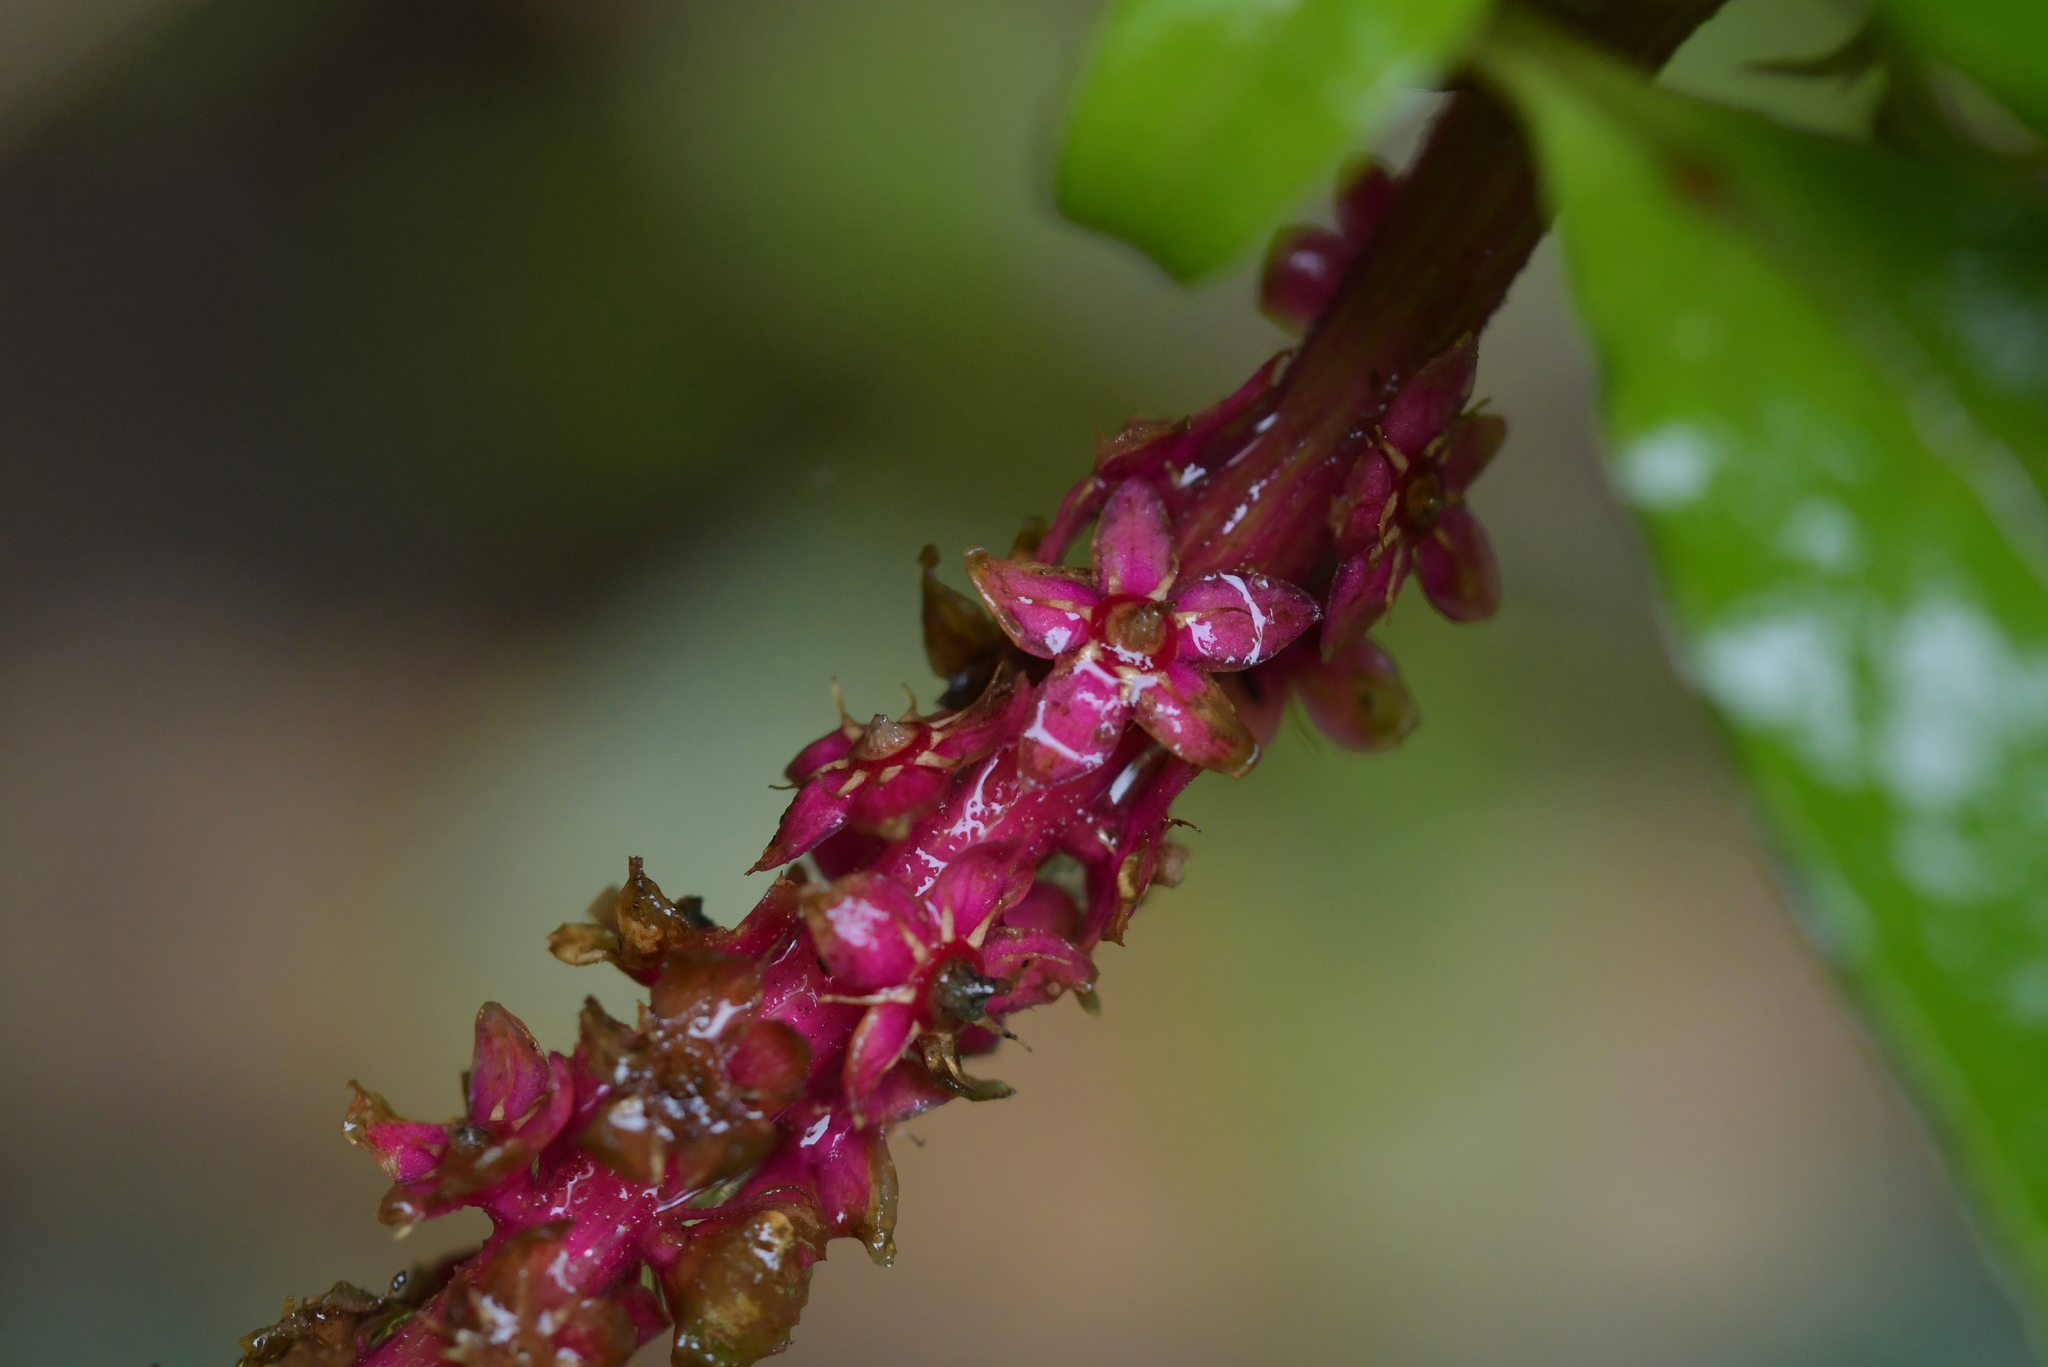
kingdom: Plantae
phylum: Tracheophyta
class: Magnoliopsida
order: Caryophyllales
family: Phytolaccaceae
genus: Phytolacca
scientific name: Phytolacca icosandra
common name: Button pokeweed
